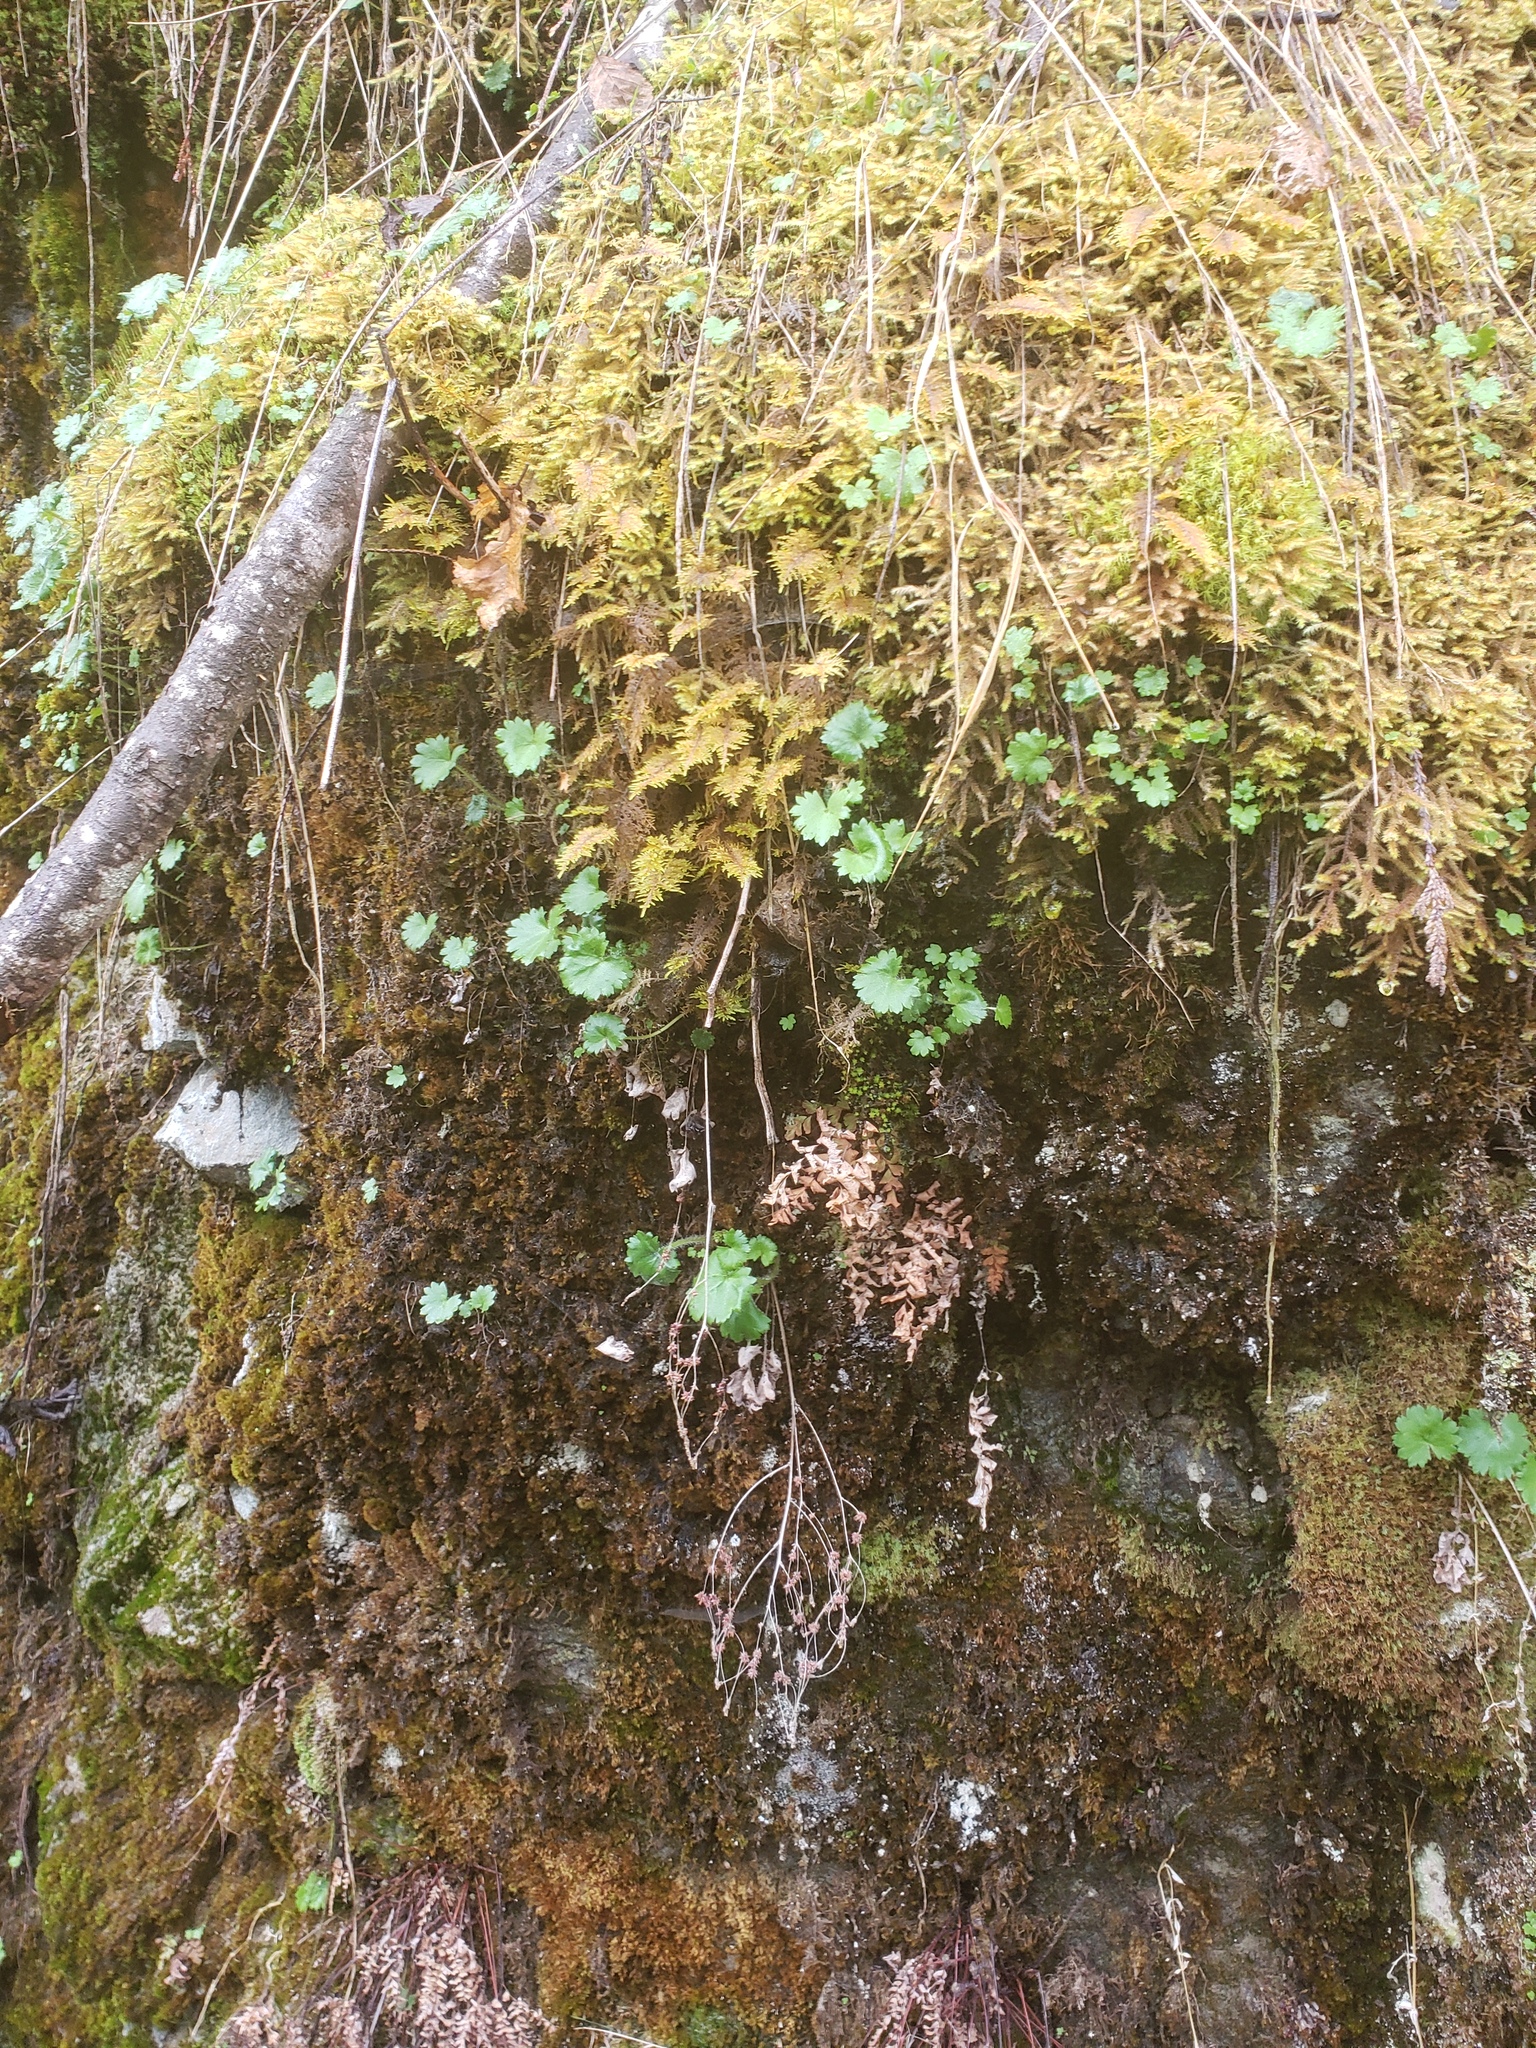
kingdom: Plantae
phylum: Tracheophyta
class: Magnoliopsida
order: Saxifragales
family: Saxifragaceae
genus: Micranthes
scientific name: Micranthes mertensiana
